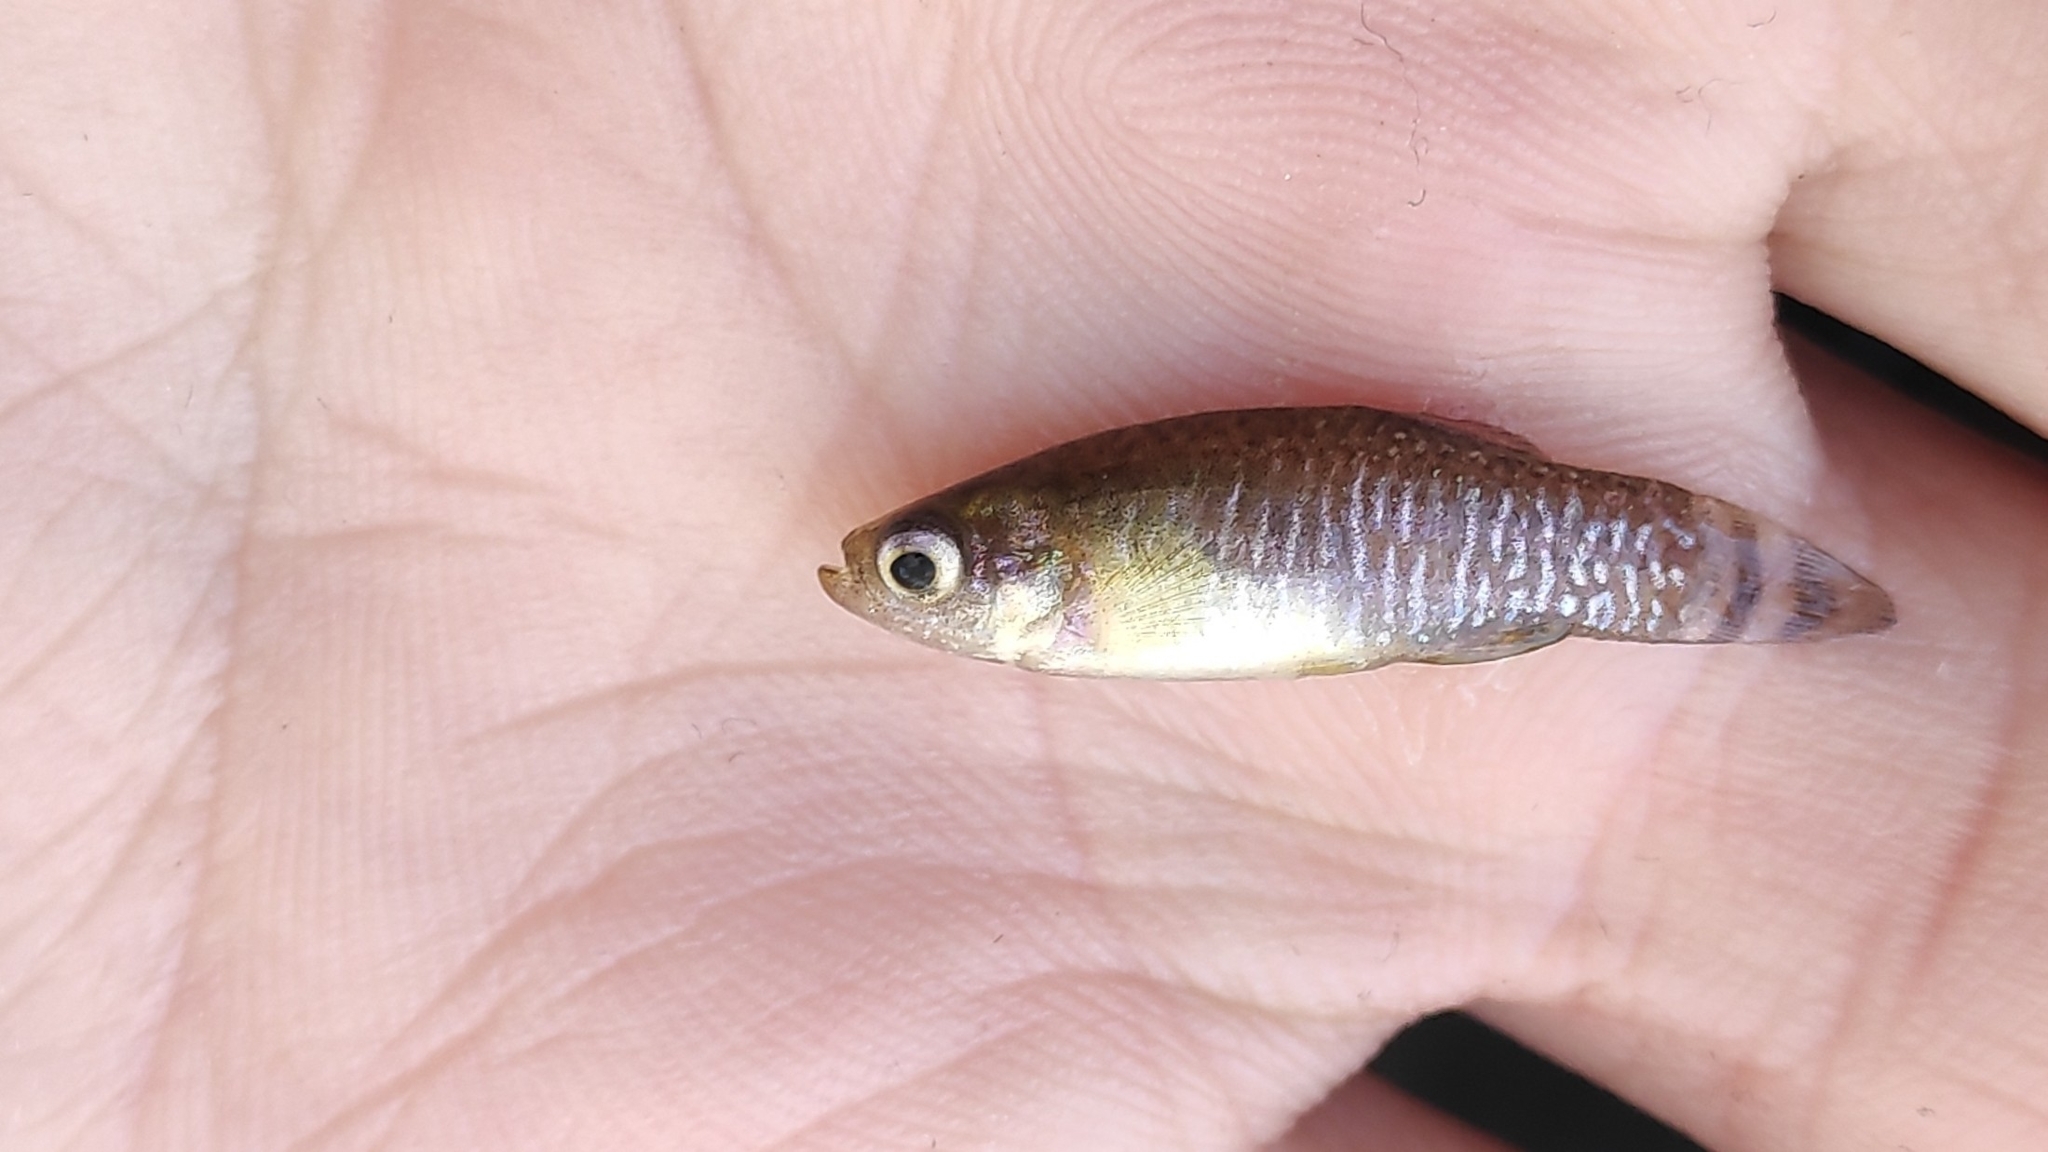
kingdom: Animalia
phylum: Chordata
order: Cyprinodontiformes
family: Aphaniidae
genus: Apricaphanius
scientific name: Apricaphanius iberus
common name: Spanish killifish
